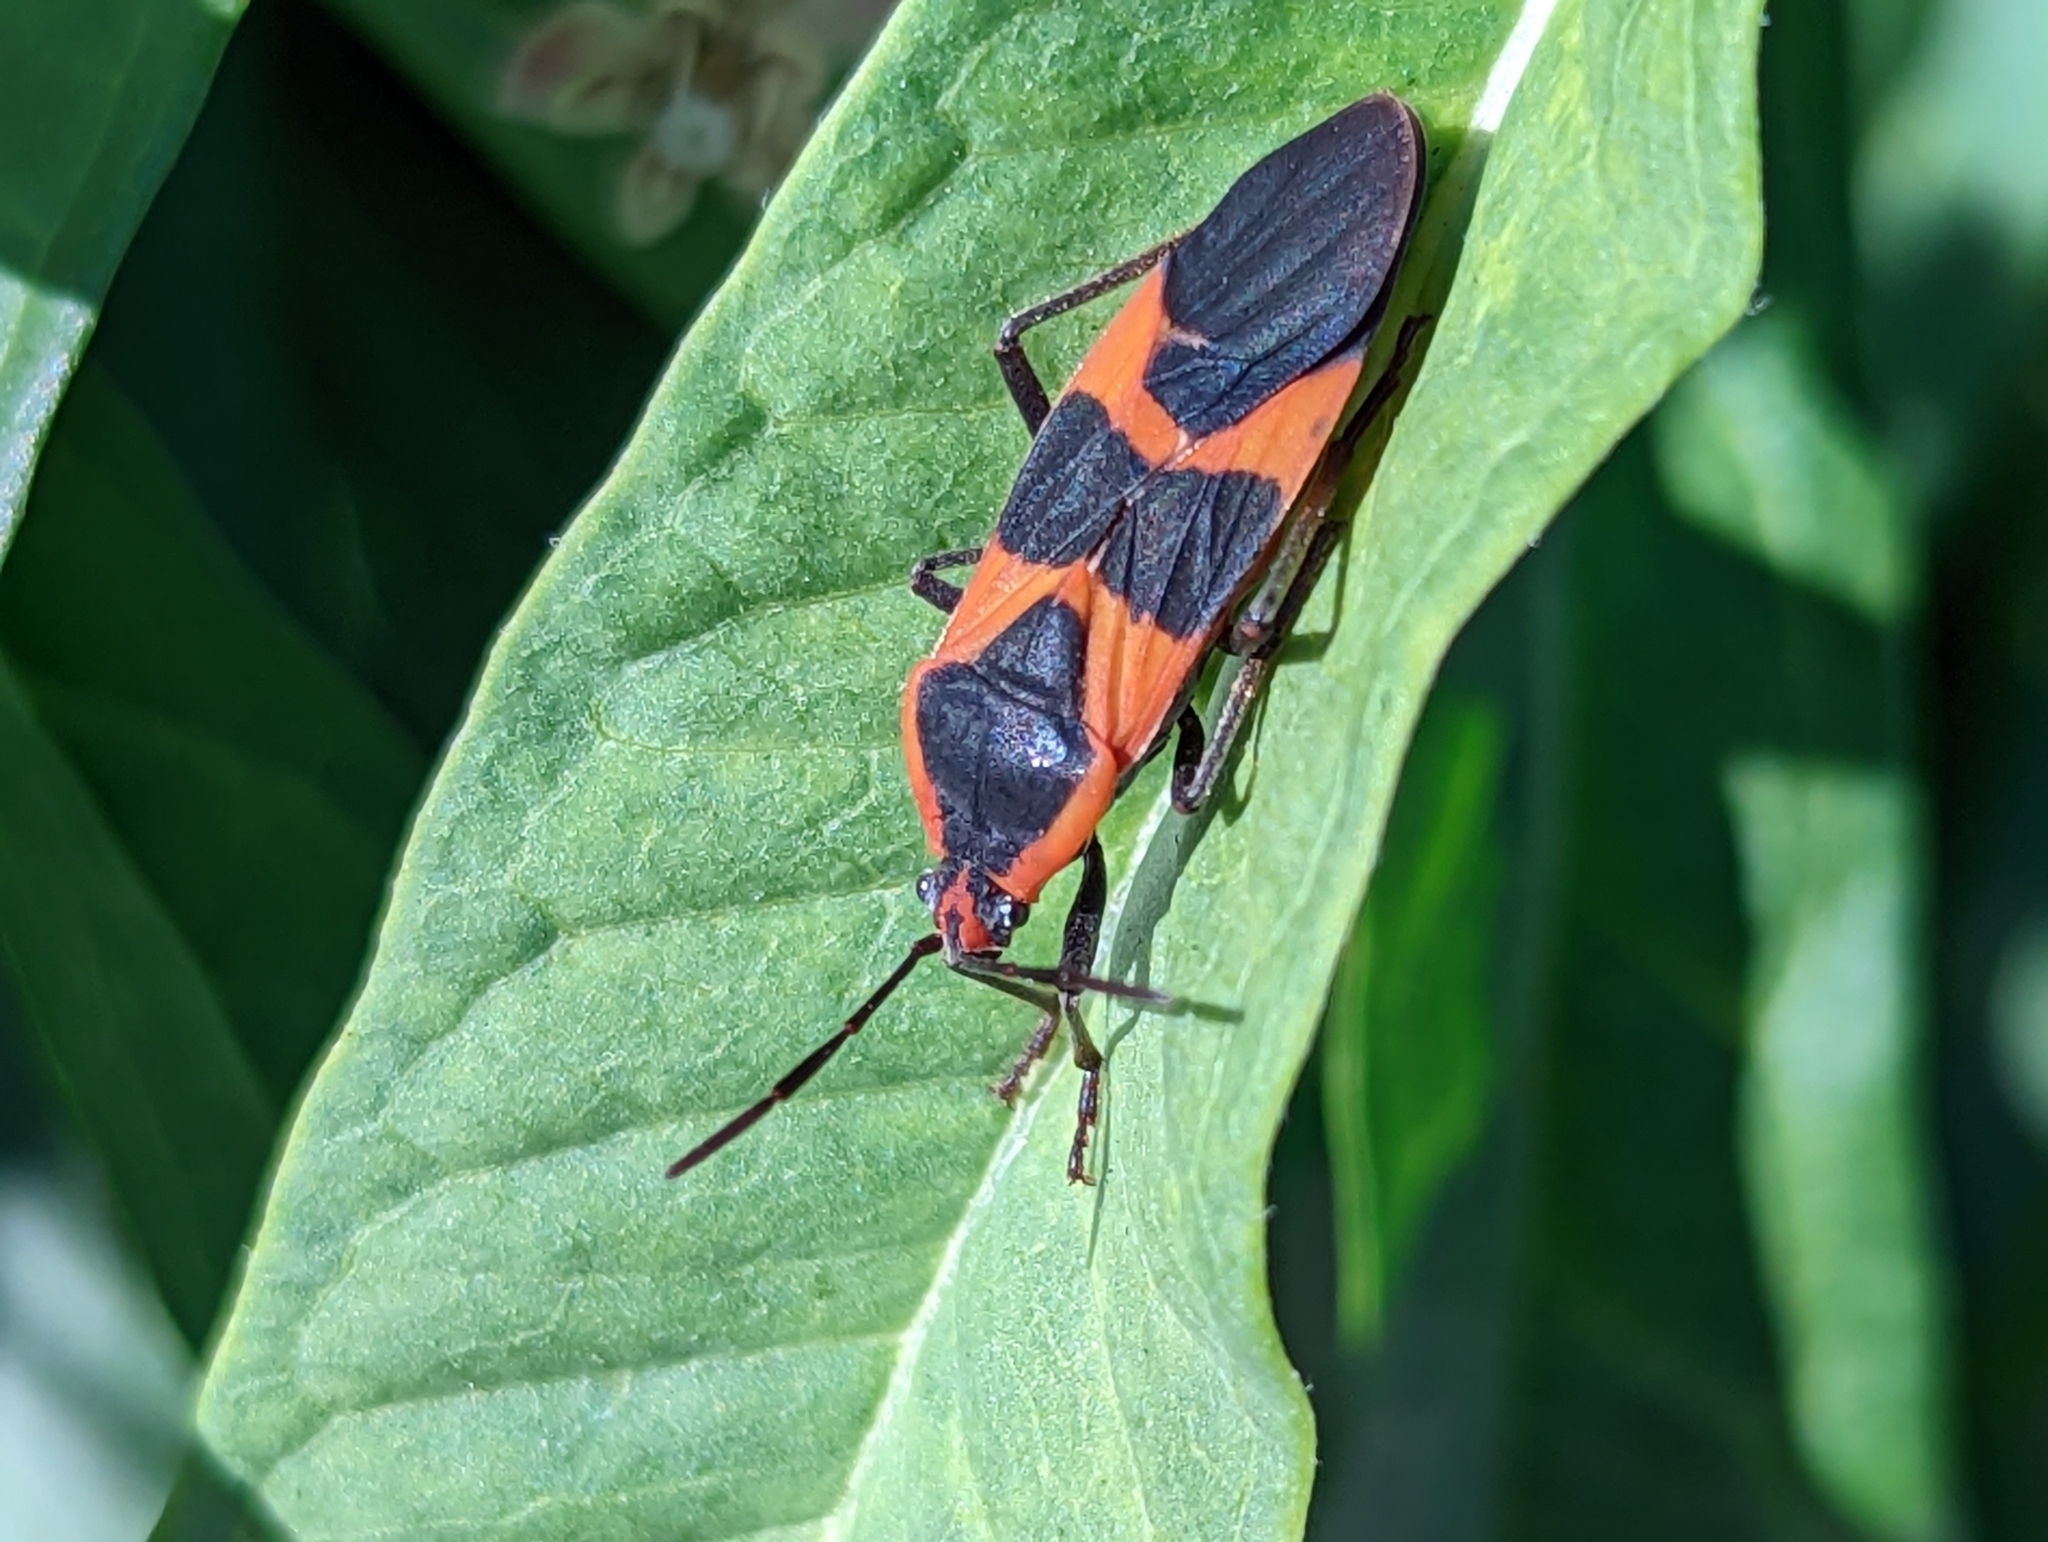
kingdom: Animalia
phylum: Arthropoda
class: Insecta
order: Hemiptera
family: Lygaeidae
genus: Oncopeltus
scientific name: Oncopeltus fasciatus
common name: Large milkweed bug
